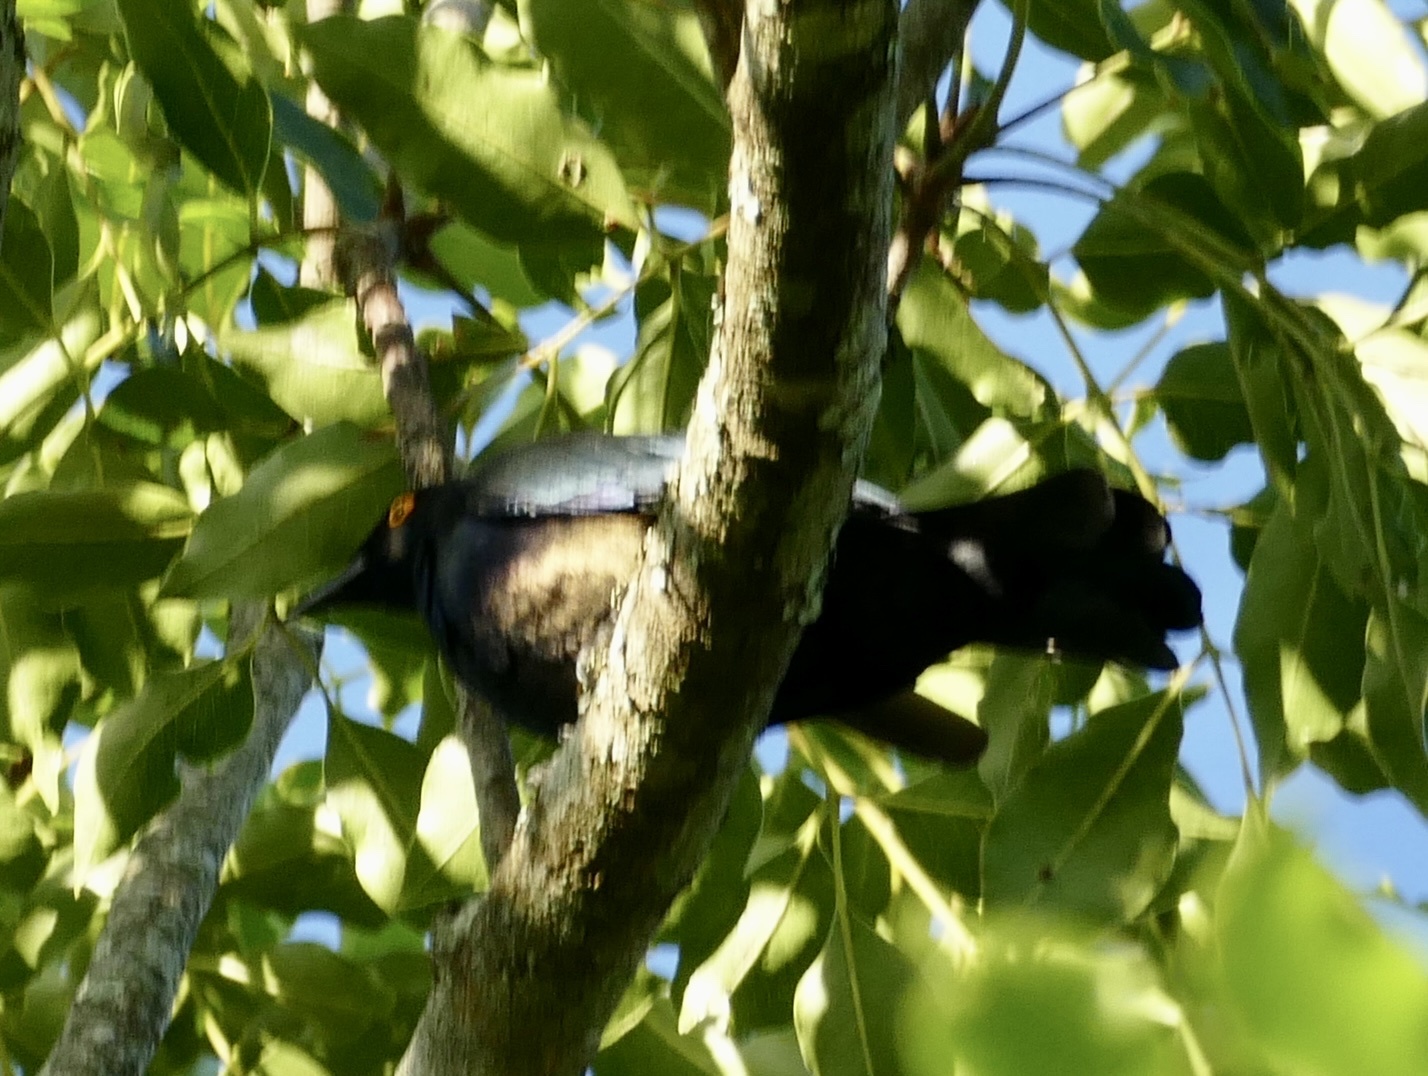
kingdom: Animalia
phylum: Chordata
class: Aves
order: Passeriformes
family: Sturnidae
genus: Notopholia
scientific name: Notopholia corrusca
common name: Black-bellied starling
